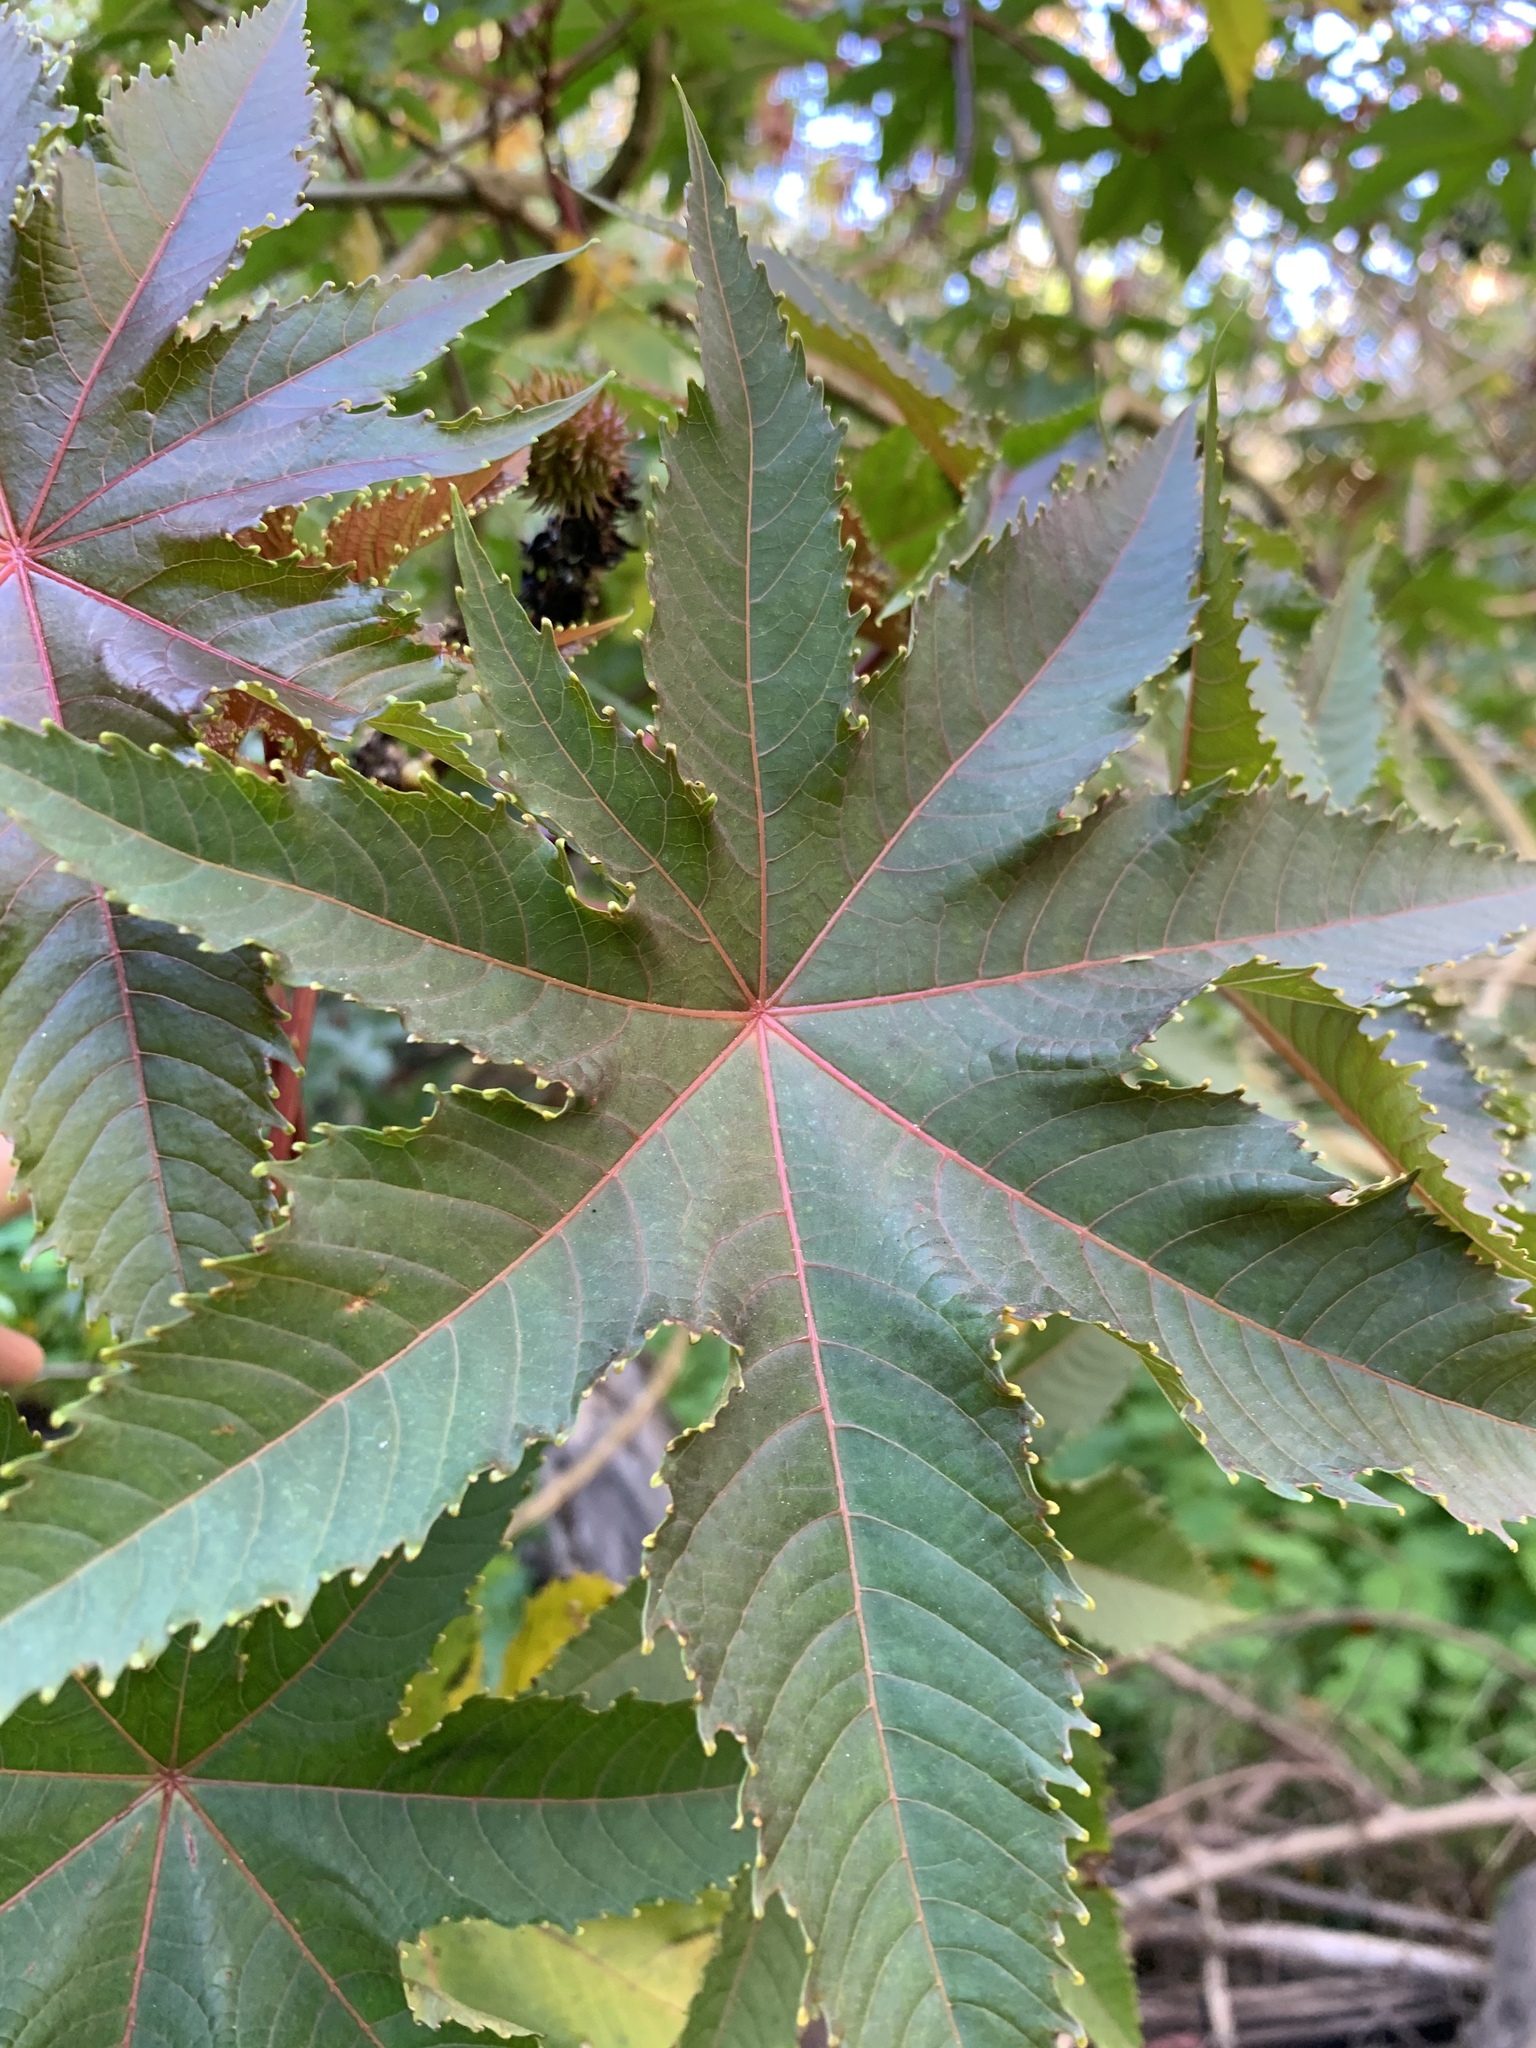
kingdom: Plantae
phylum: Tracheophyta
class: Magnoliopsida
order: Malpighiales
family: Euphorbiaceae
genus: Ricinus
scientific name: Ricinus communis
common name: Castor-oil-plant
